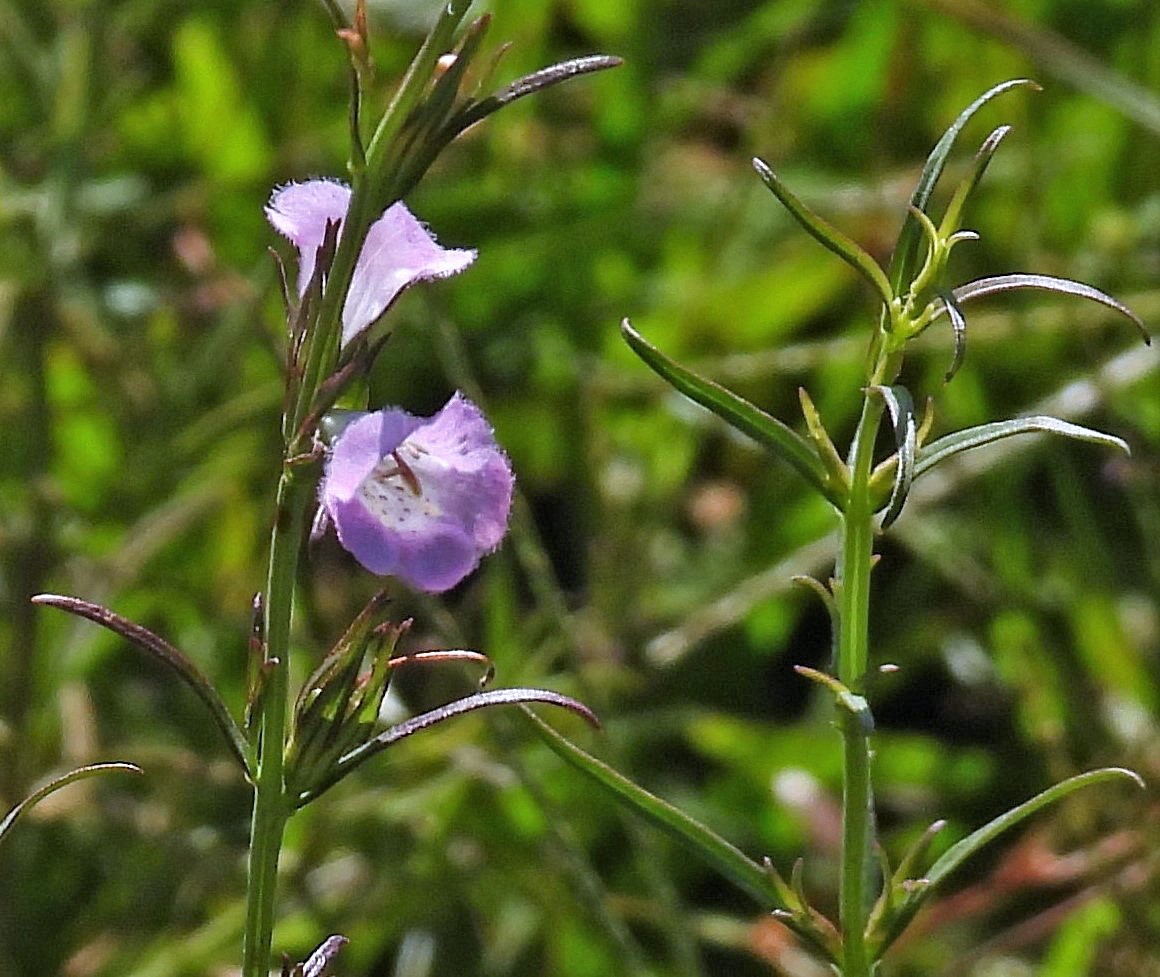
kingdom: Plantae
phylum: Tracheophyta
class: Magnoliopsida
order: Lamiales
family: Orobanchaceae
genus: Agalinis
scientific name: Agalinis communis
